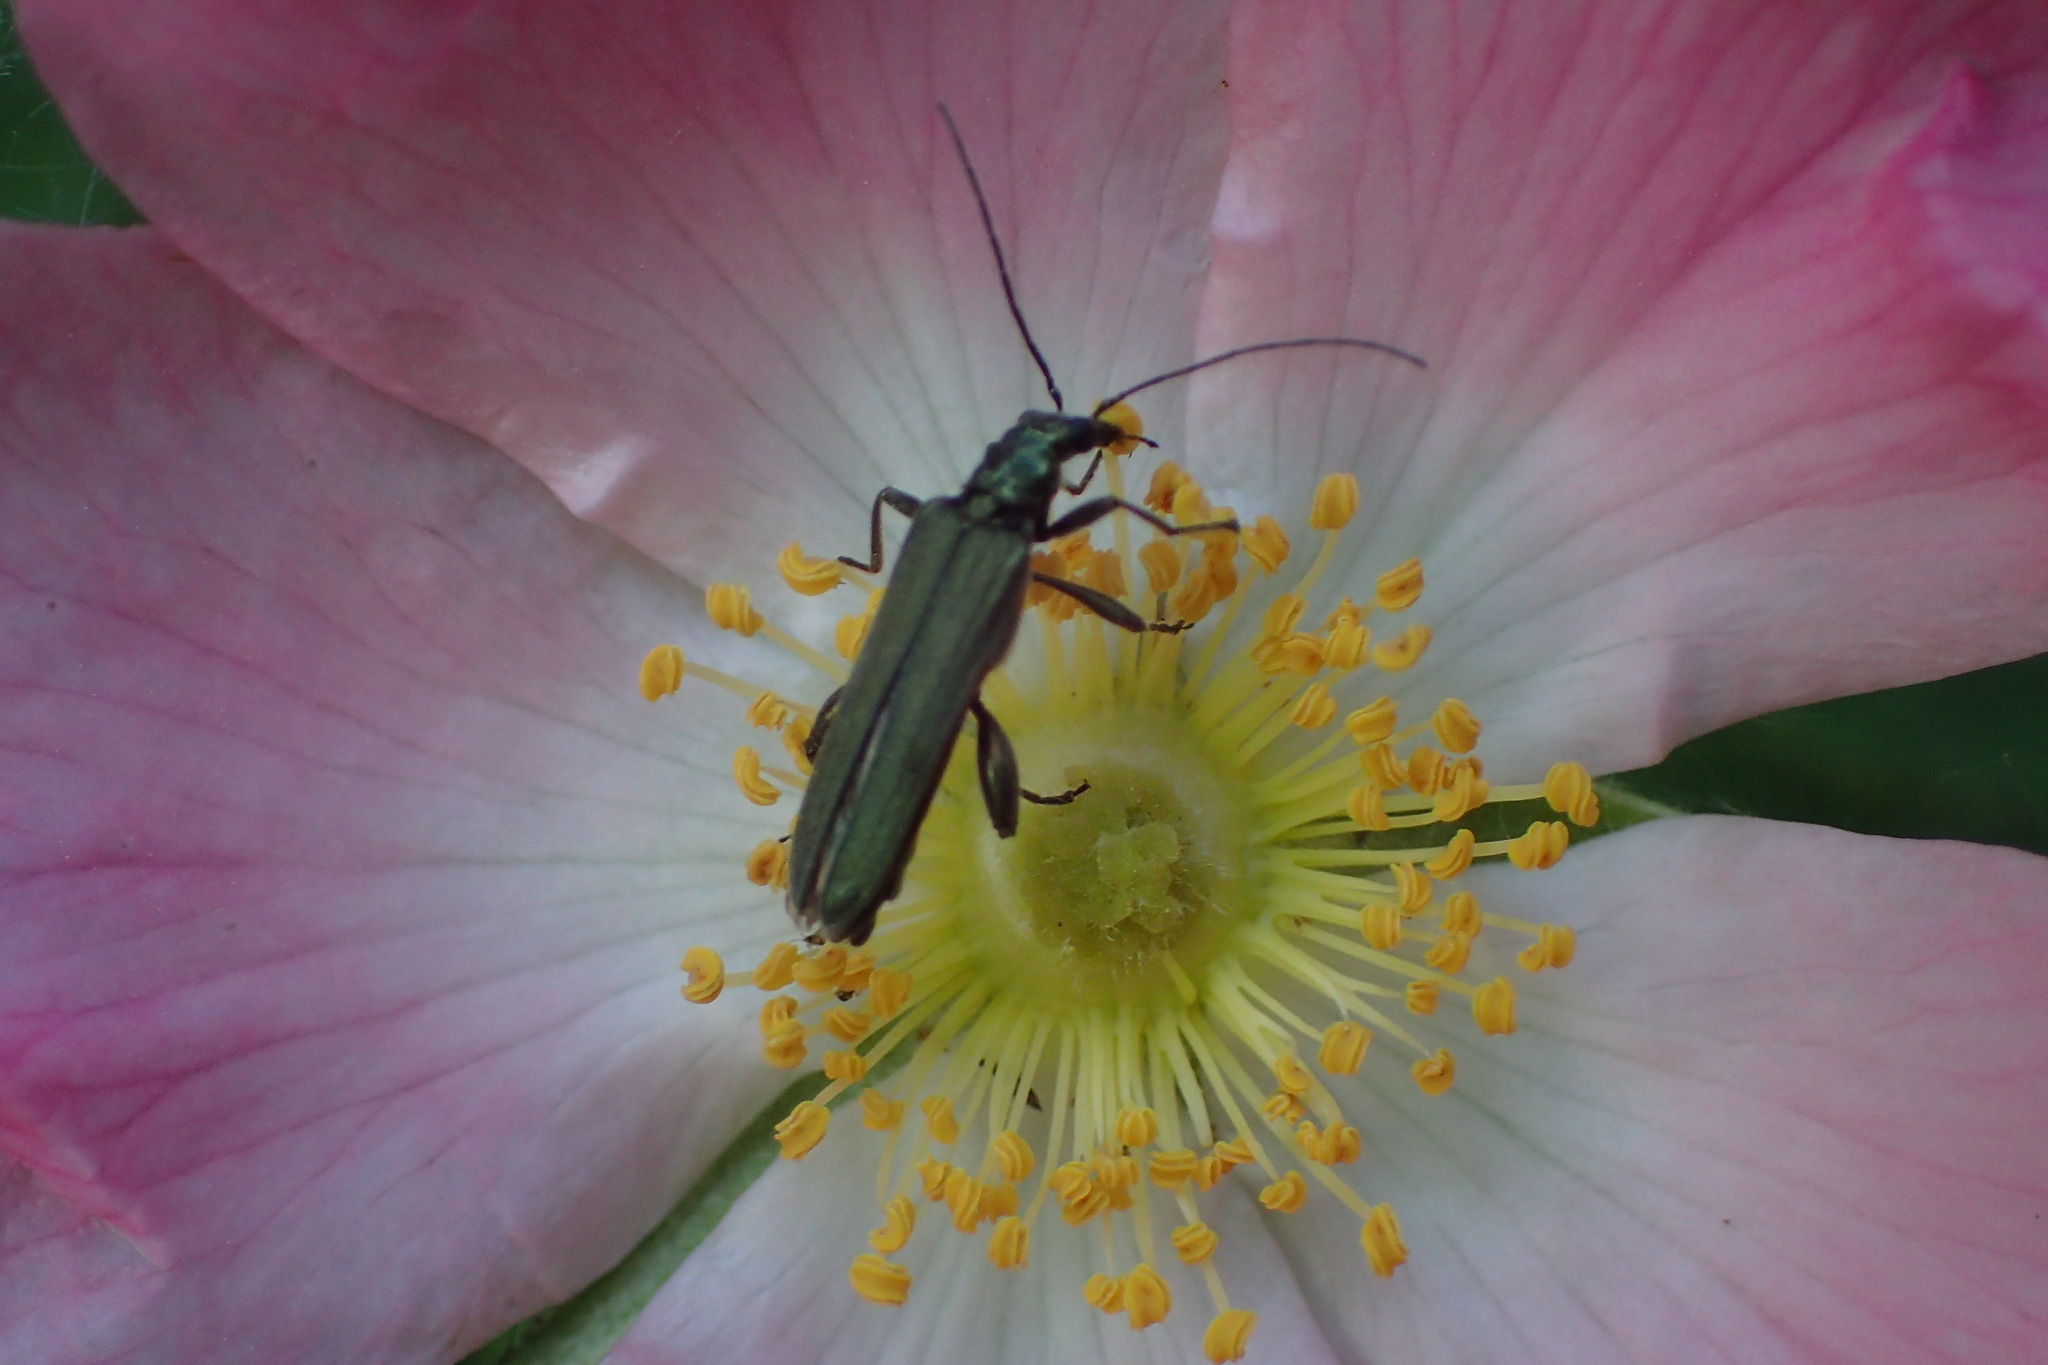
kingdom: Animalia
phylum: Arthropoda
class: Insecta
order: Coleoptera
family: Oedemeridae
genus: Oedemera
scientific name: Oedemera virescens
